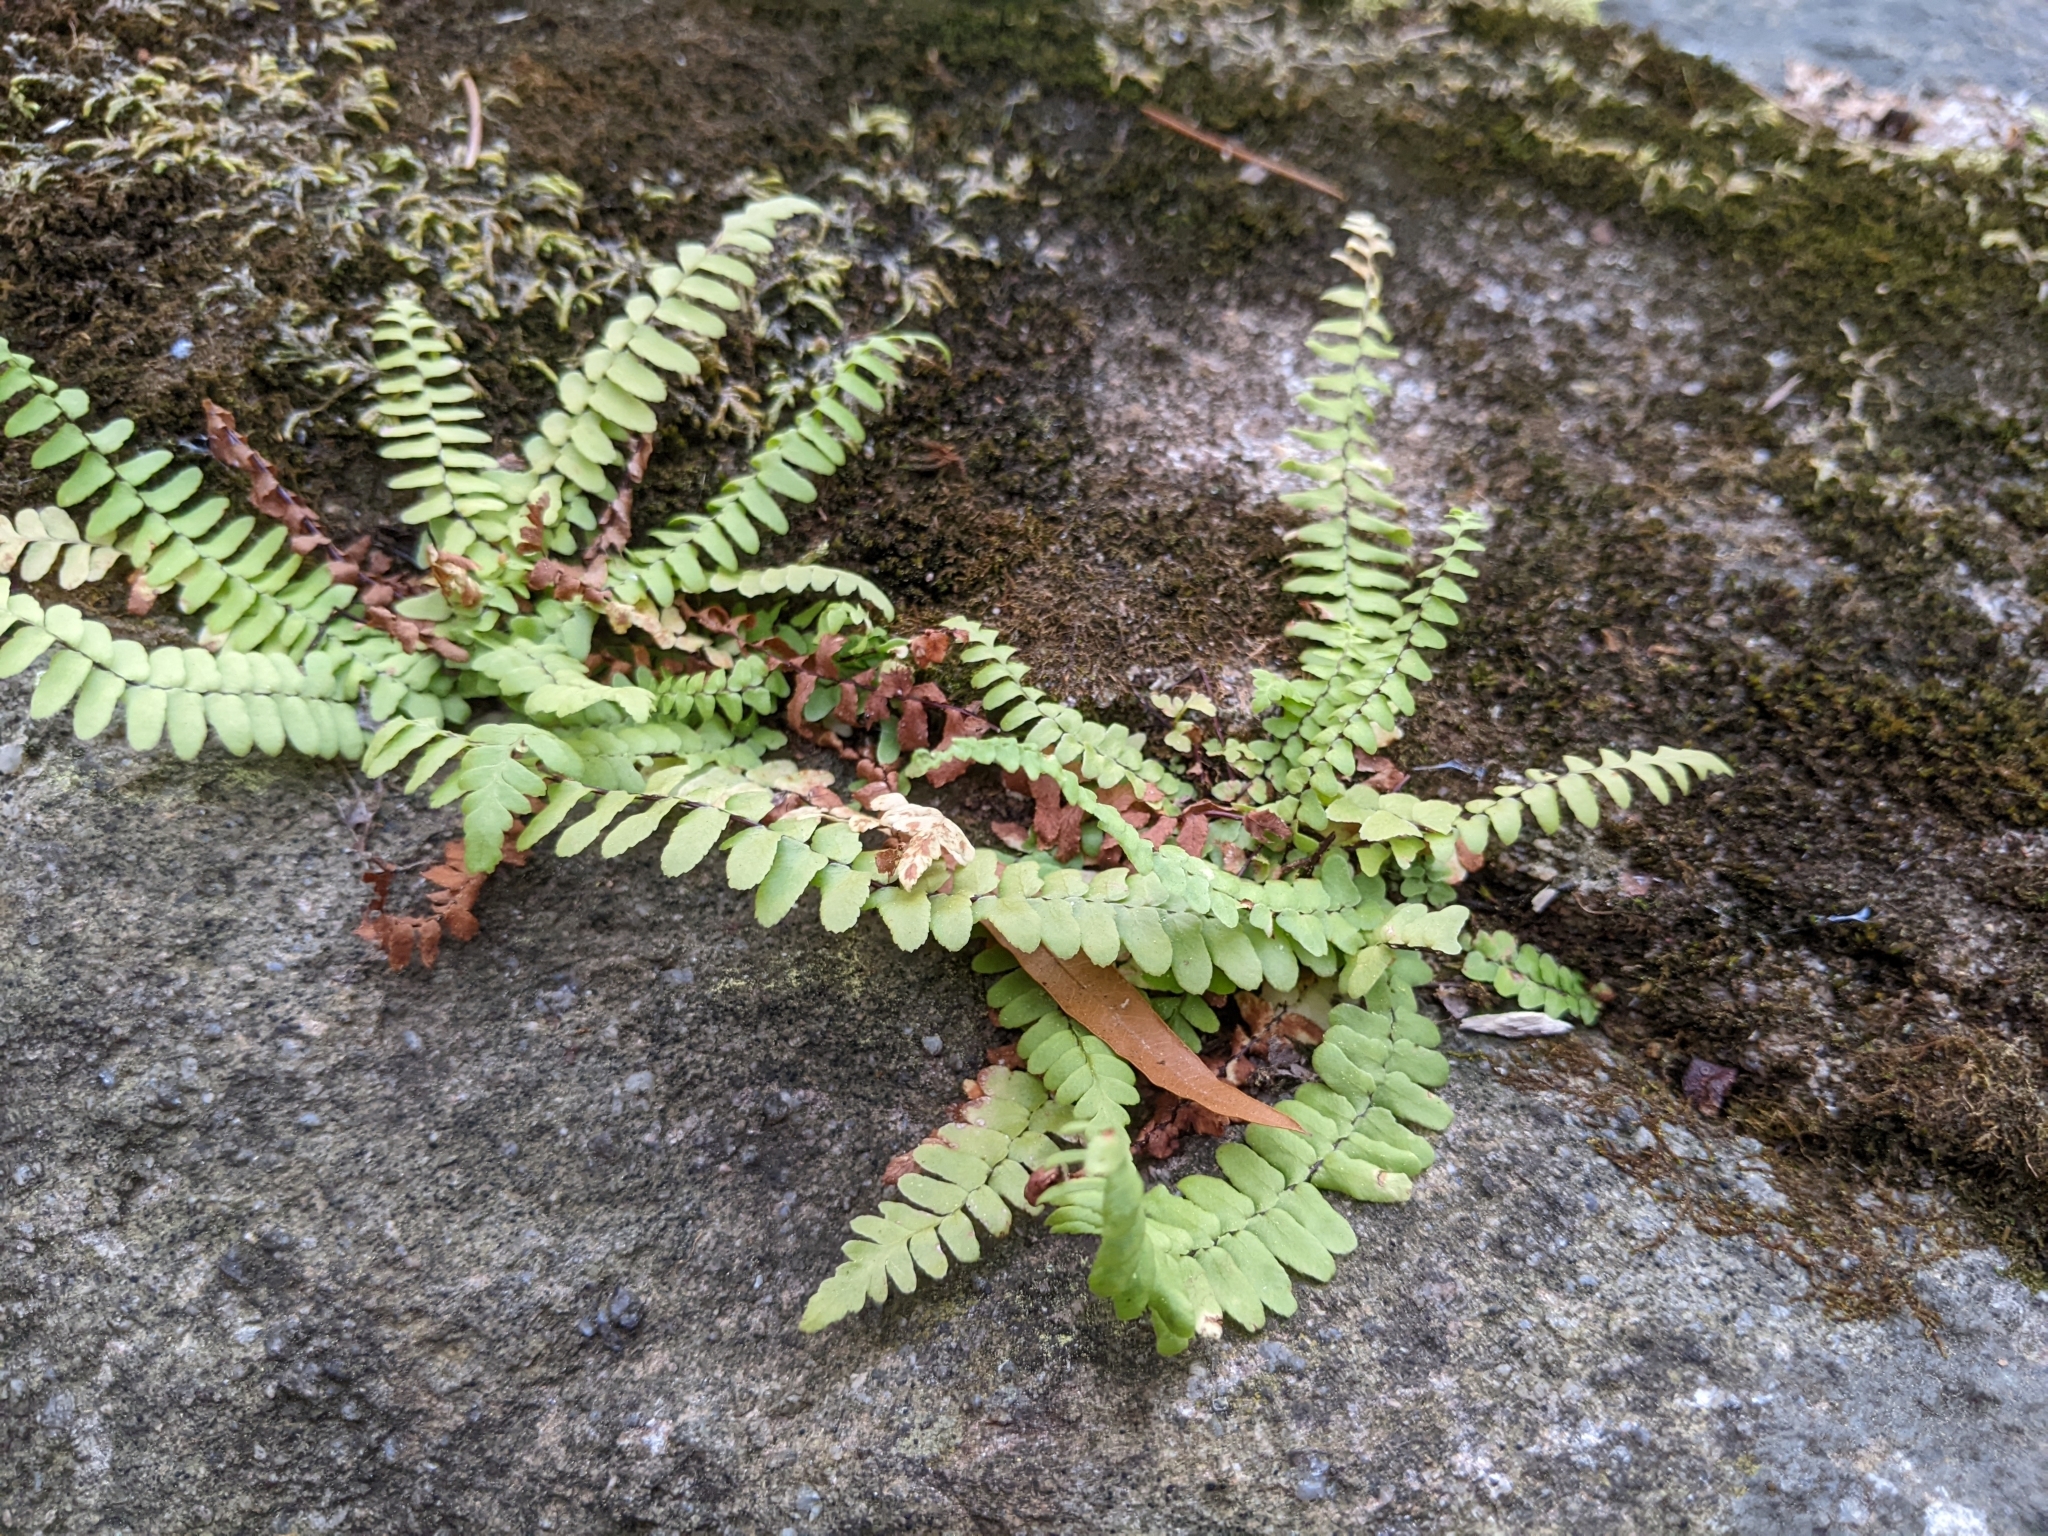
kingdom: Plantae
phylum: Tracheophyta
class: Polypodiopsida
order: Polypodiales
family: Aspleniaceae
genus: Asplenium
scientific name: Asplenium platyneuron
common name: Ebony spleenwort
